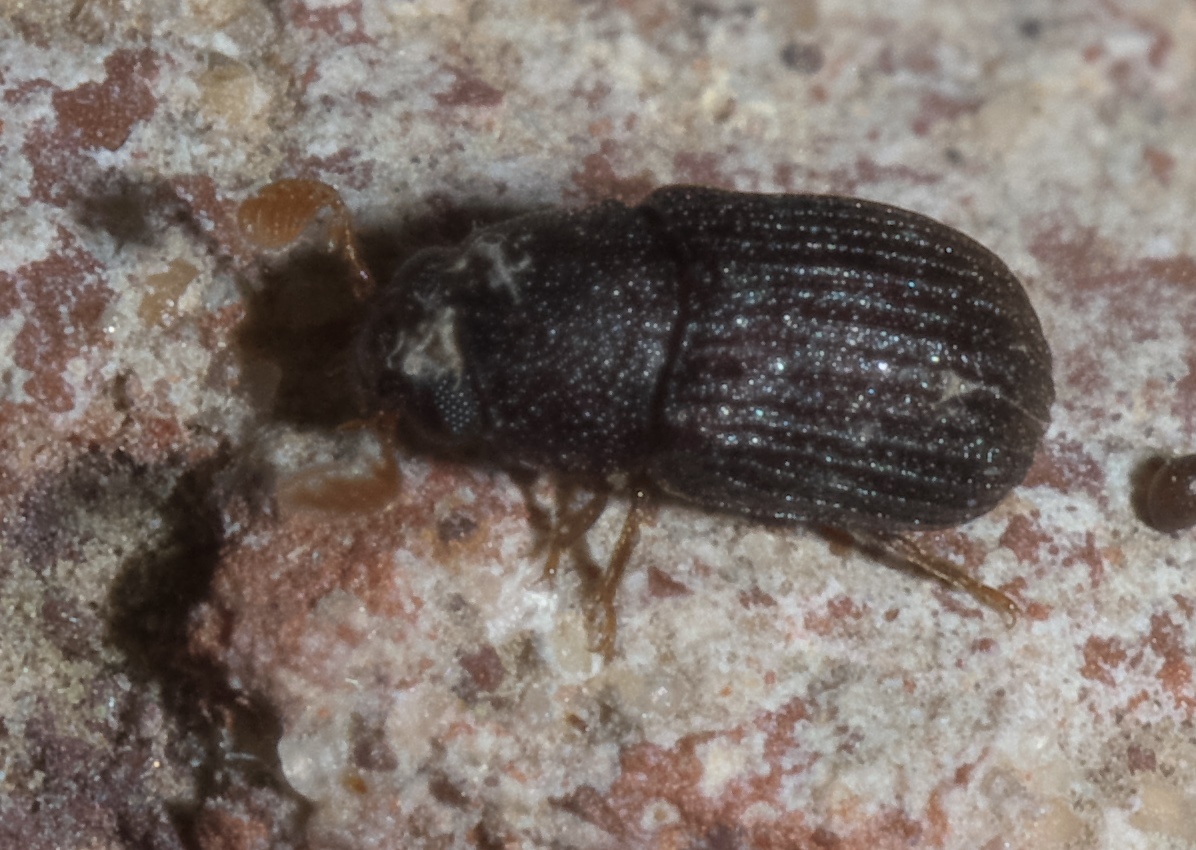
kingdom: Animalia
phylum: Arthropoda
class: Insecta
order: Coleoptera
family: Tenebrionidae
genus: Rhipidandrus
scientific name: Rhipidandrus paradoxus
